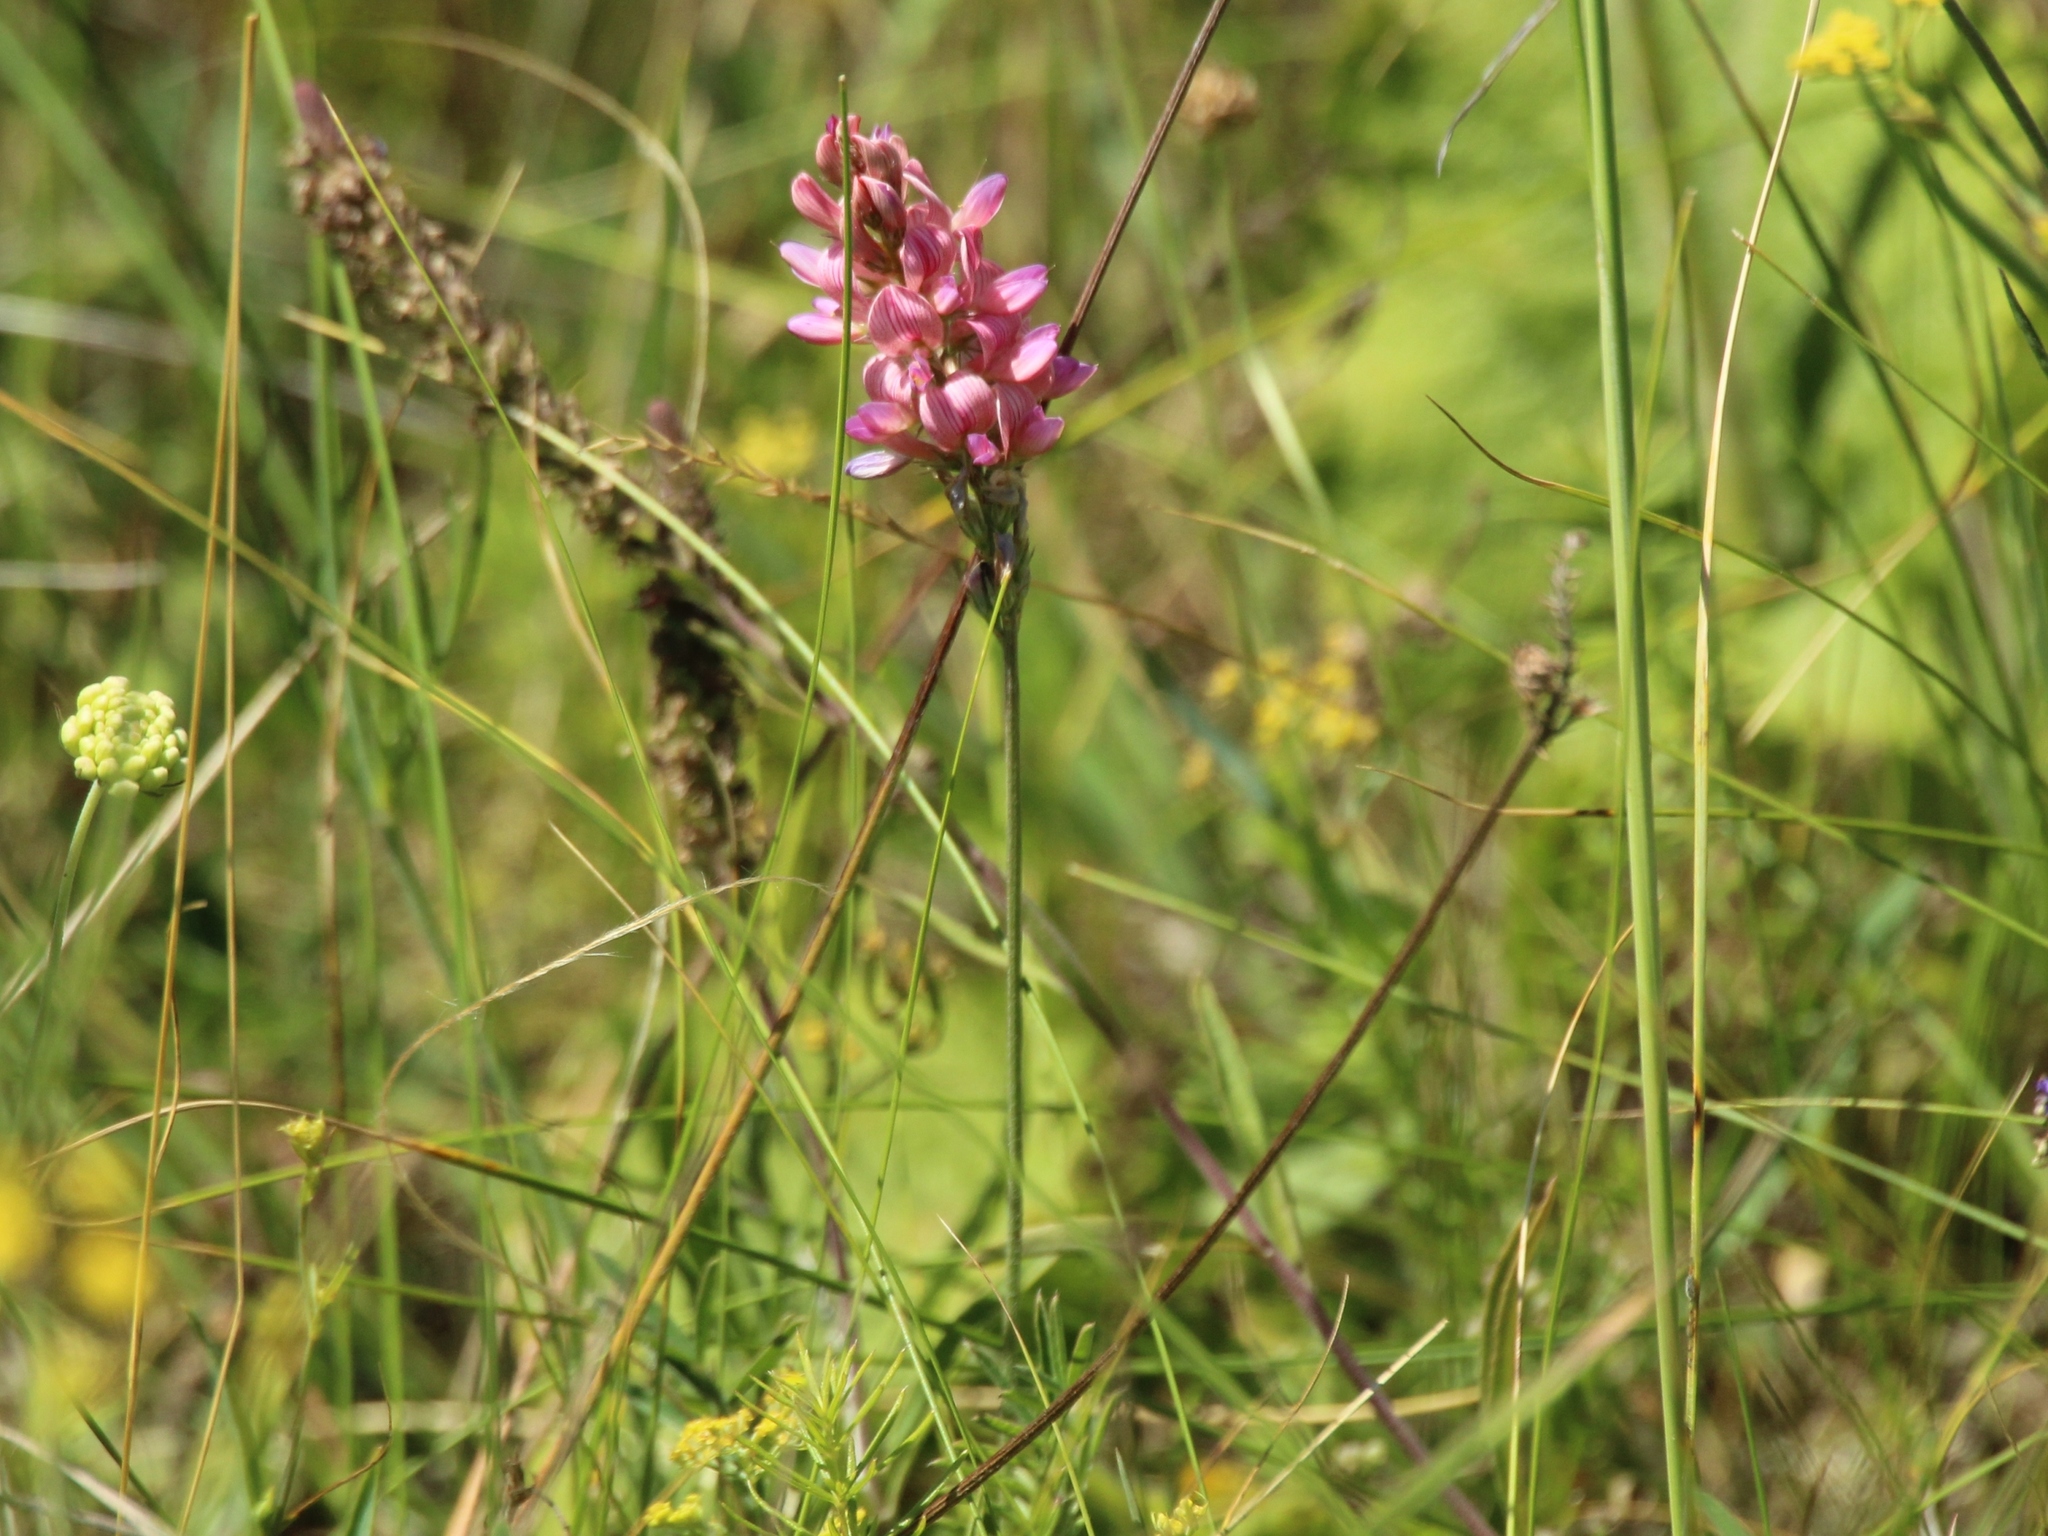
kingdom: Plantae
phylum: Tracheophyta
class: Magnoliopsida
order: Fabales
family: Fabaceae
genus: Onobrychis
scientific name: Onobrychis arenaria
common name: Sand esparcet
